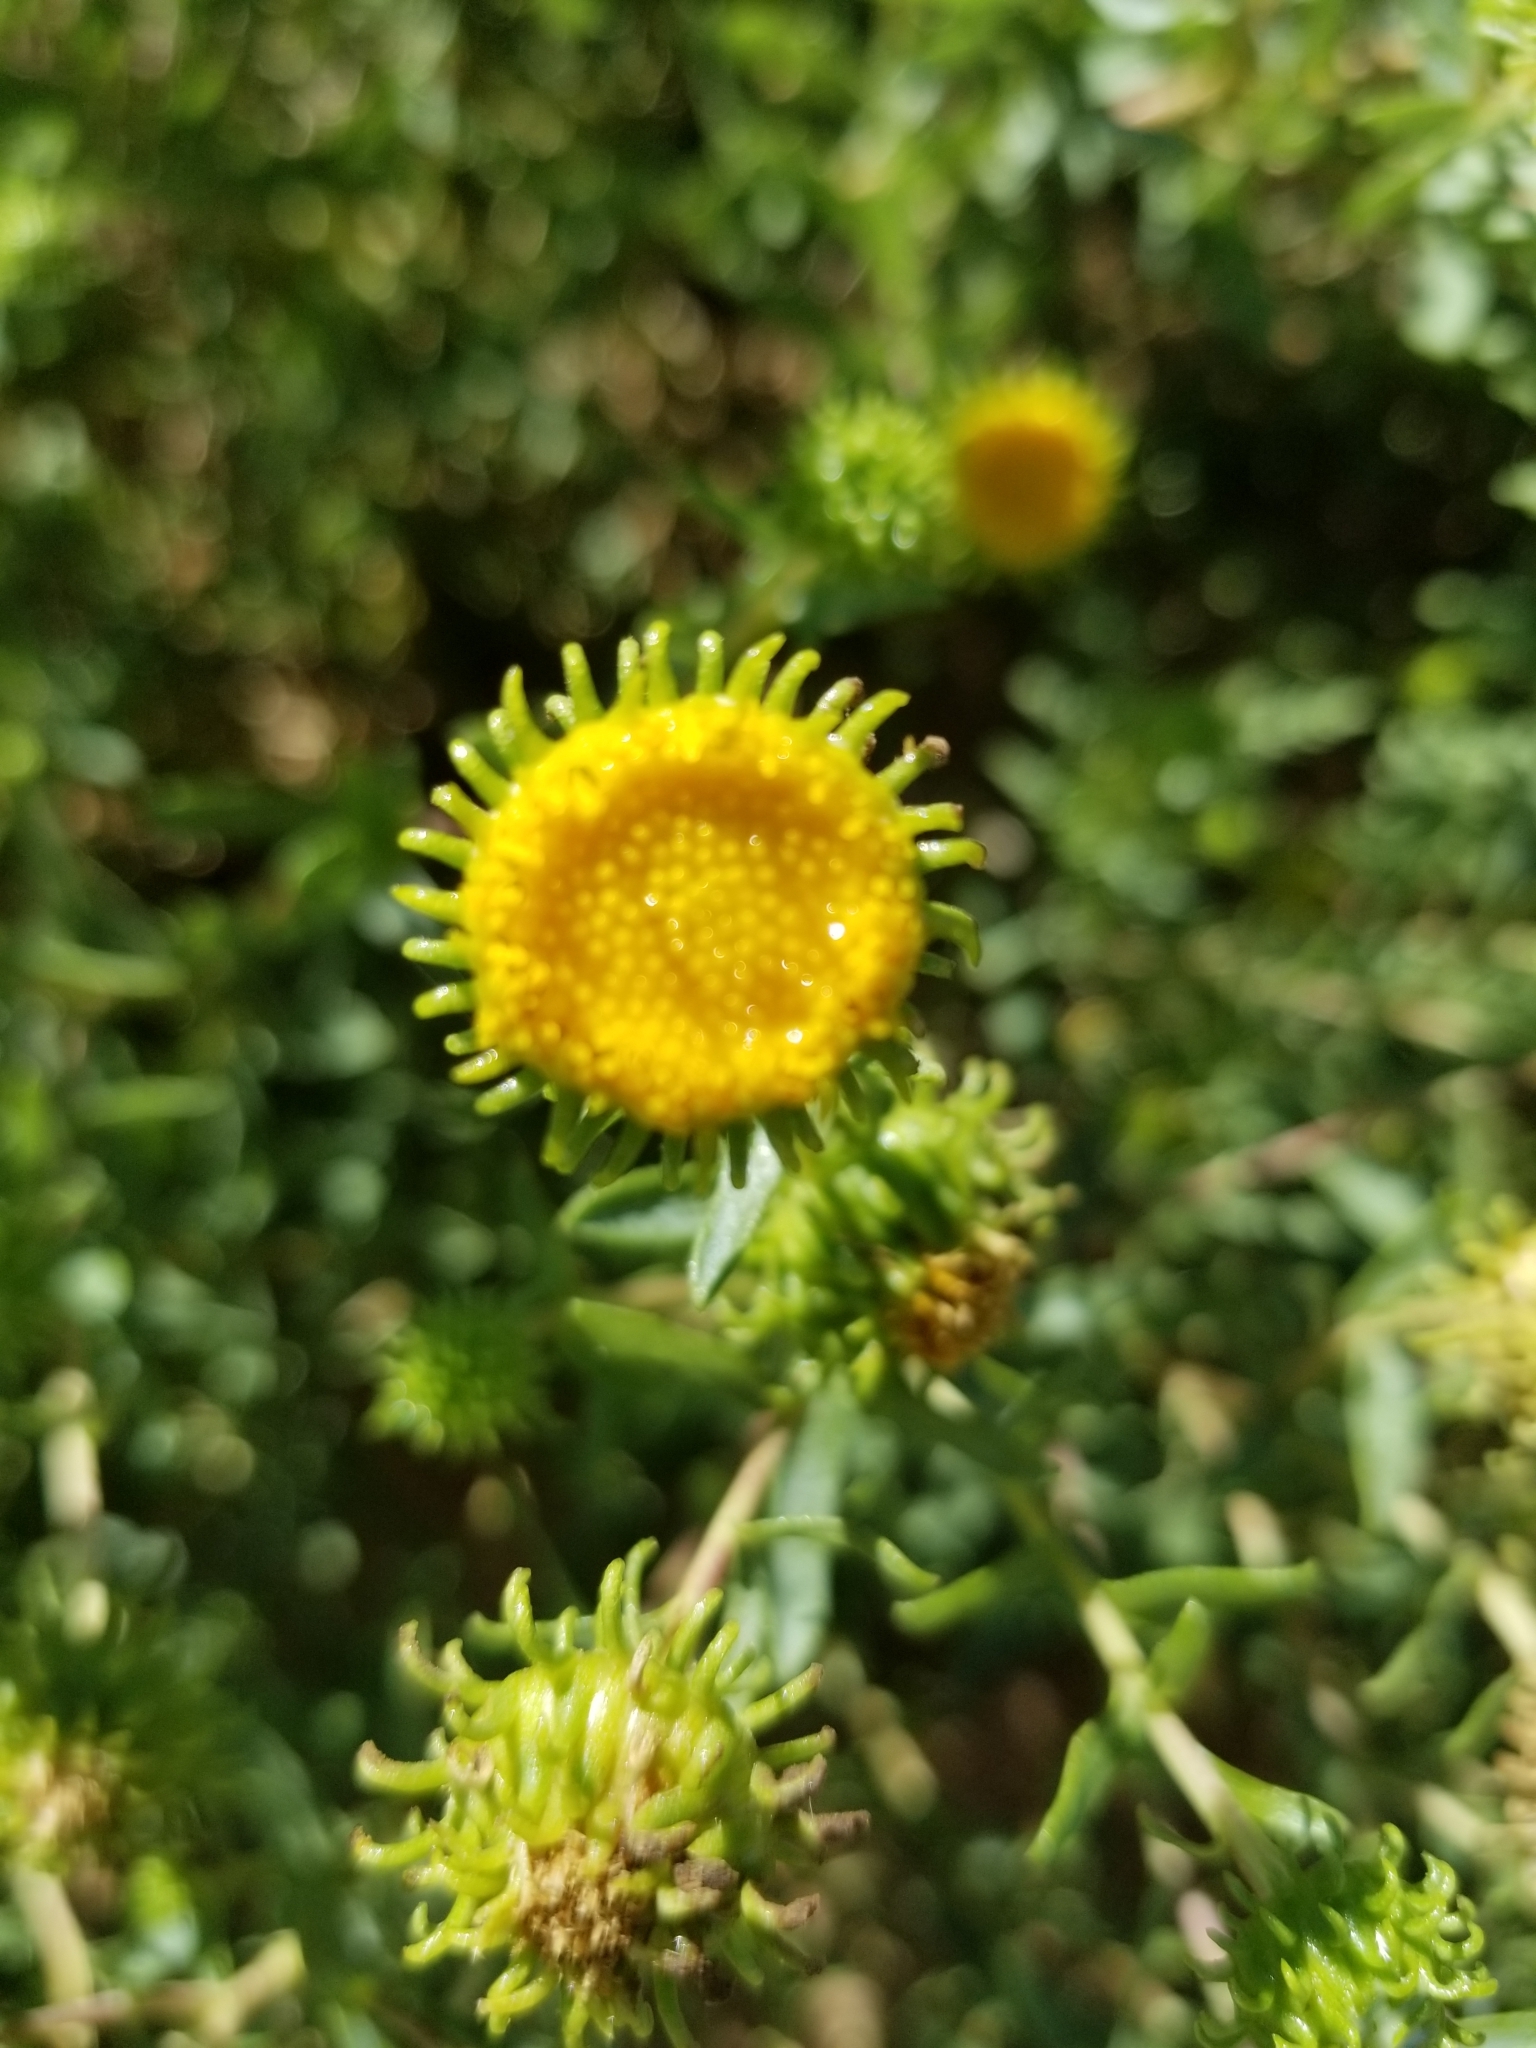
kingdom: Plantae
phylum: Tracheophyta
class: Magnoliopsida
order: Asterales
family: Asteraceae
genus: Grindelia
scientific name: Grindelia squarrosa
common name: Curly-cup gumweed
